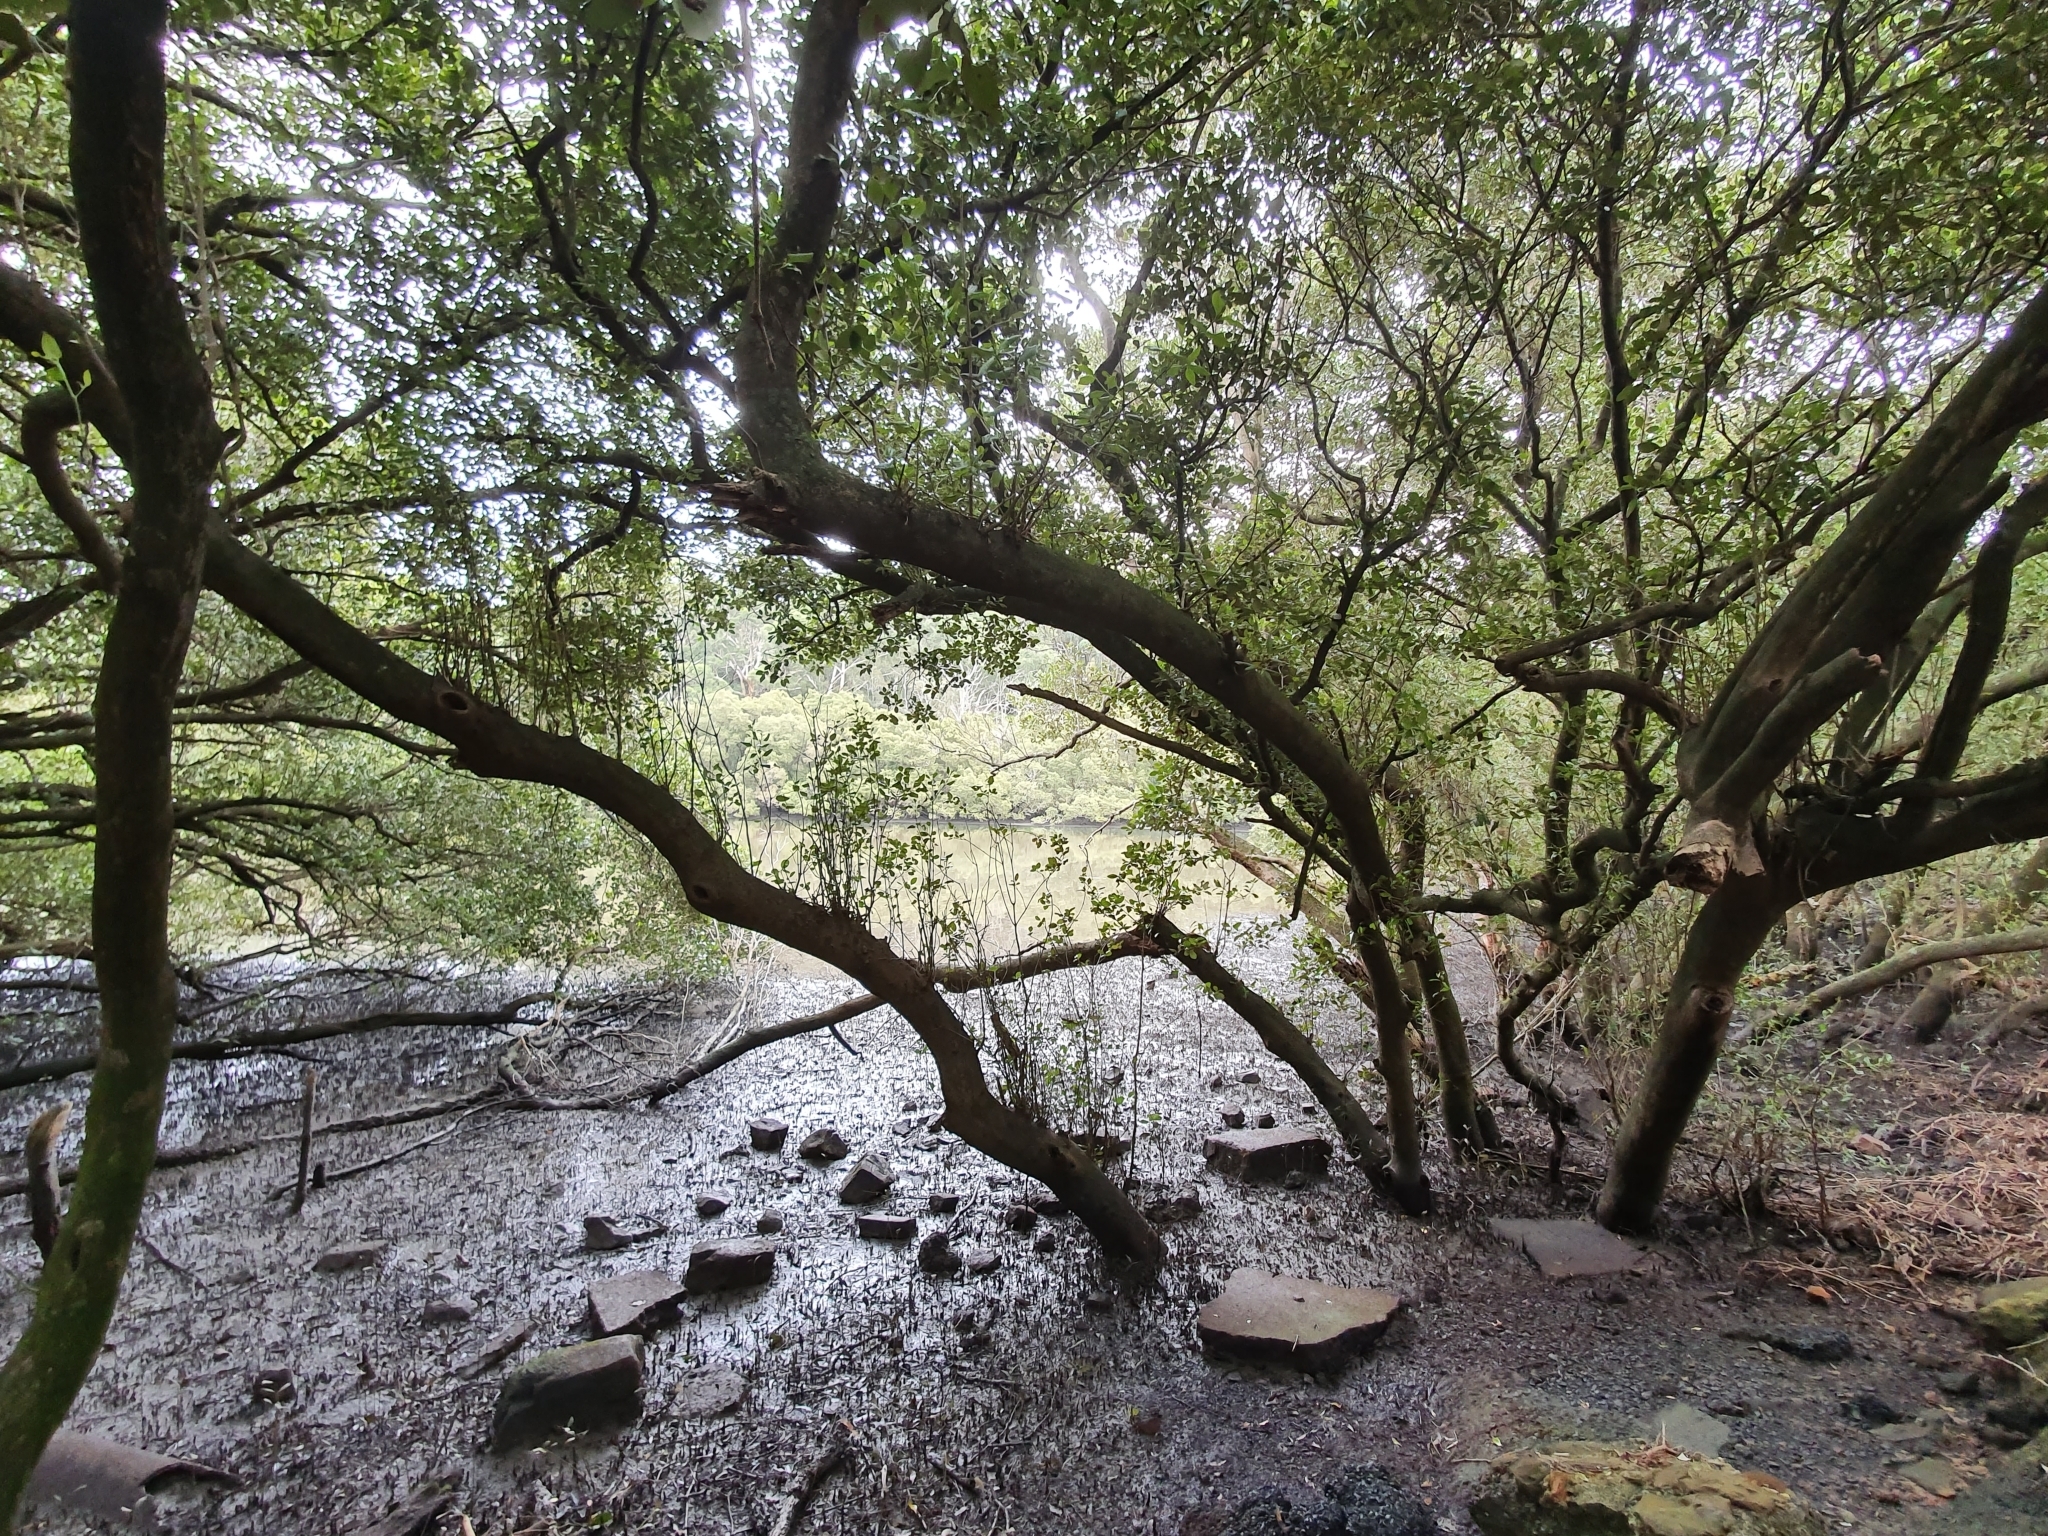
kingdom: Plantae
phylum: Tracheophyta
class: Magnoliopsida
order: Lamiales
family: Acanthaceae
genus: Avicennia
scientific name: Avicennia marina
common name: Gray mangrove
